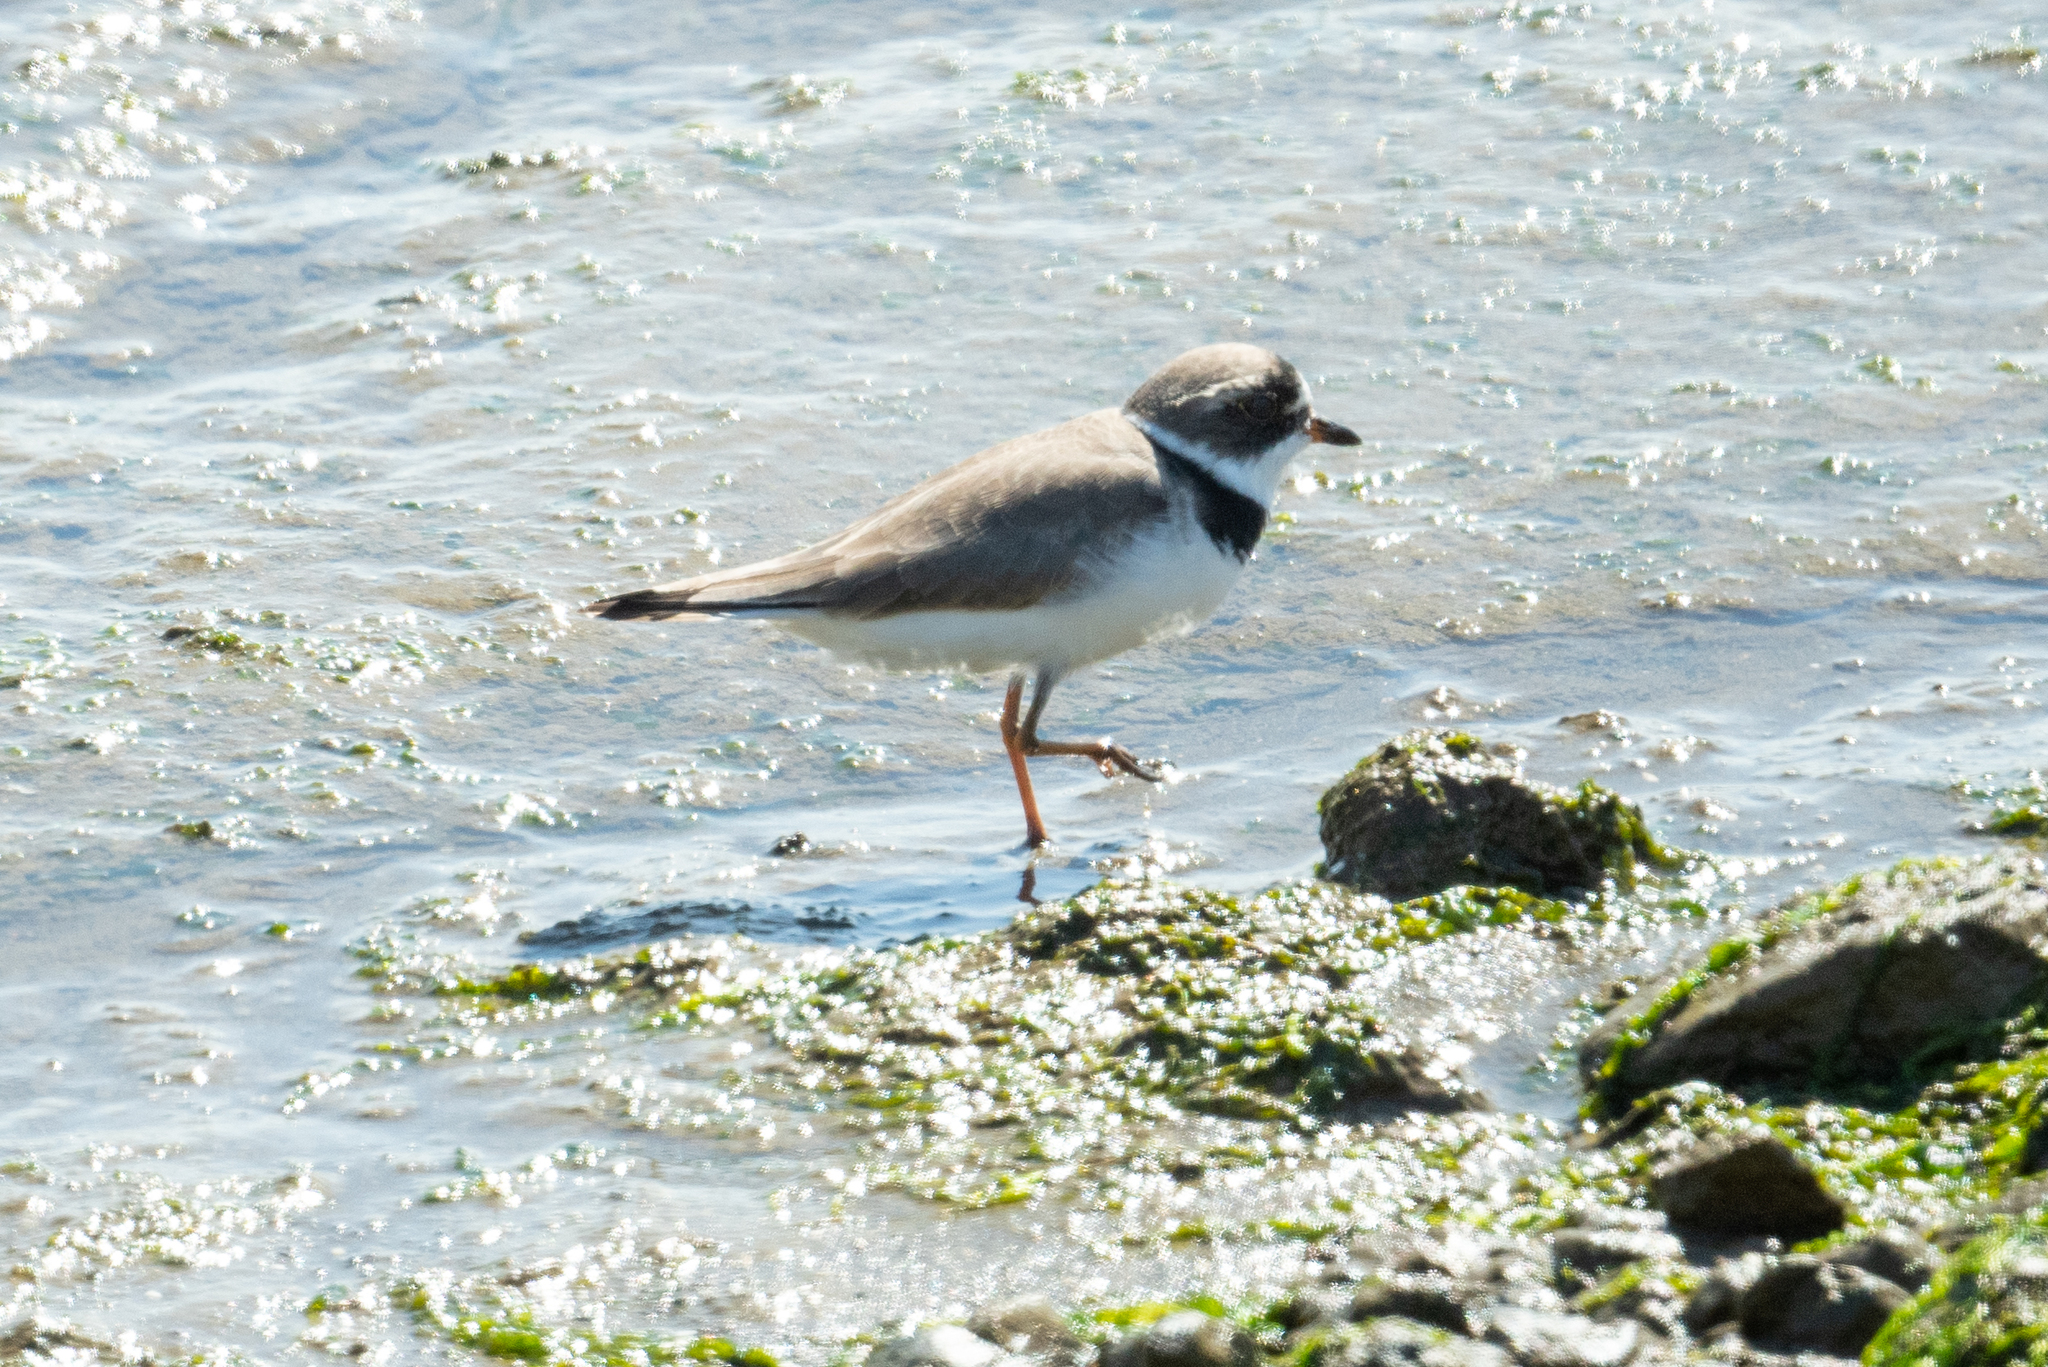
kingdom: Animalia
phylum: Chordata
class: Aves
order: Charadriiformes
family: Charadriidae
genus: Charadrius
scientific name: Charadrius semipalmatus
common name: Semipalmated plover
